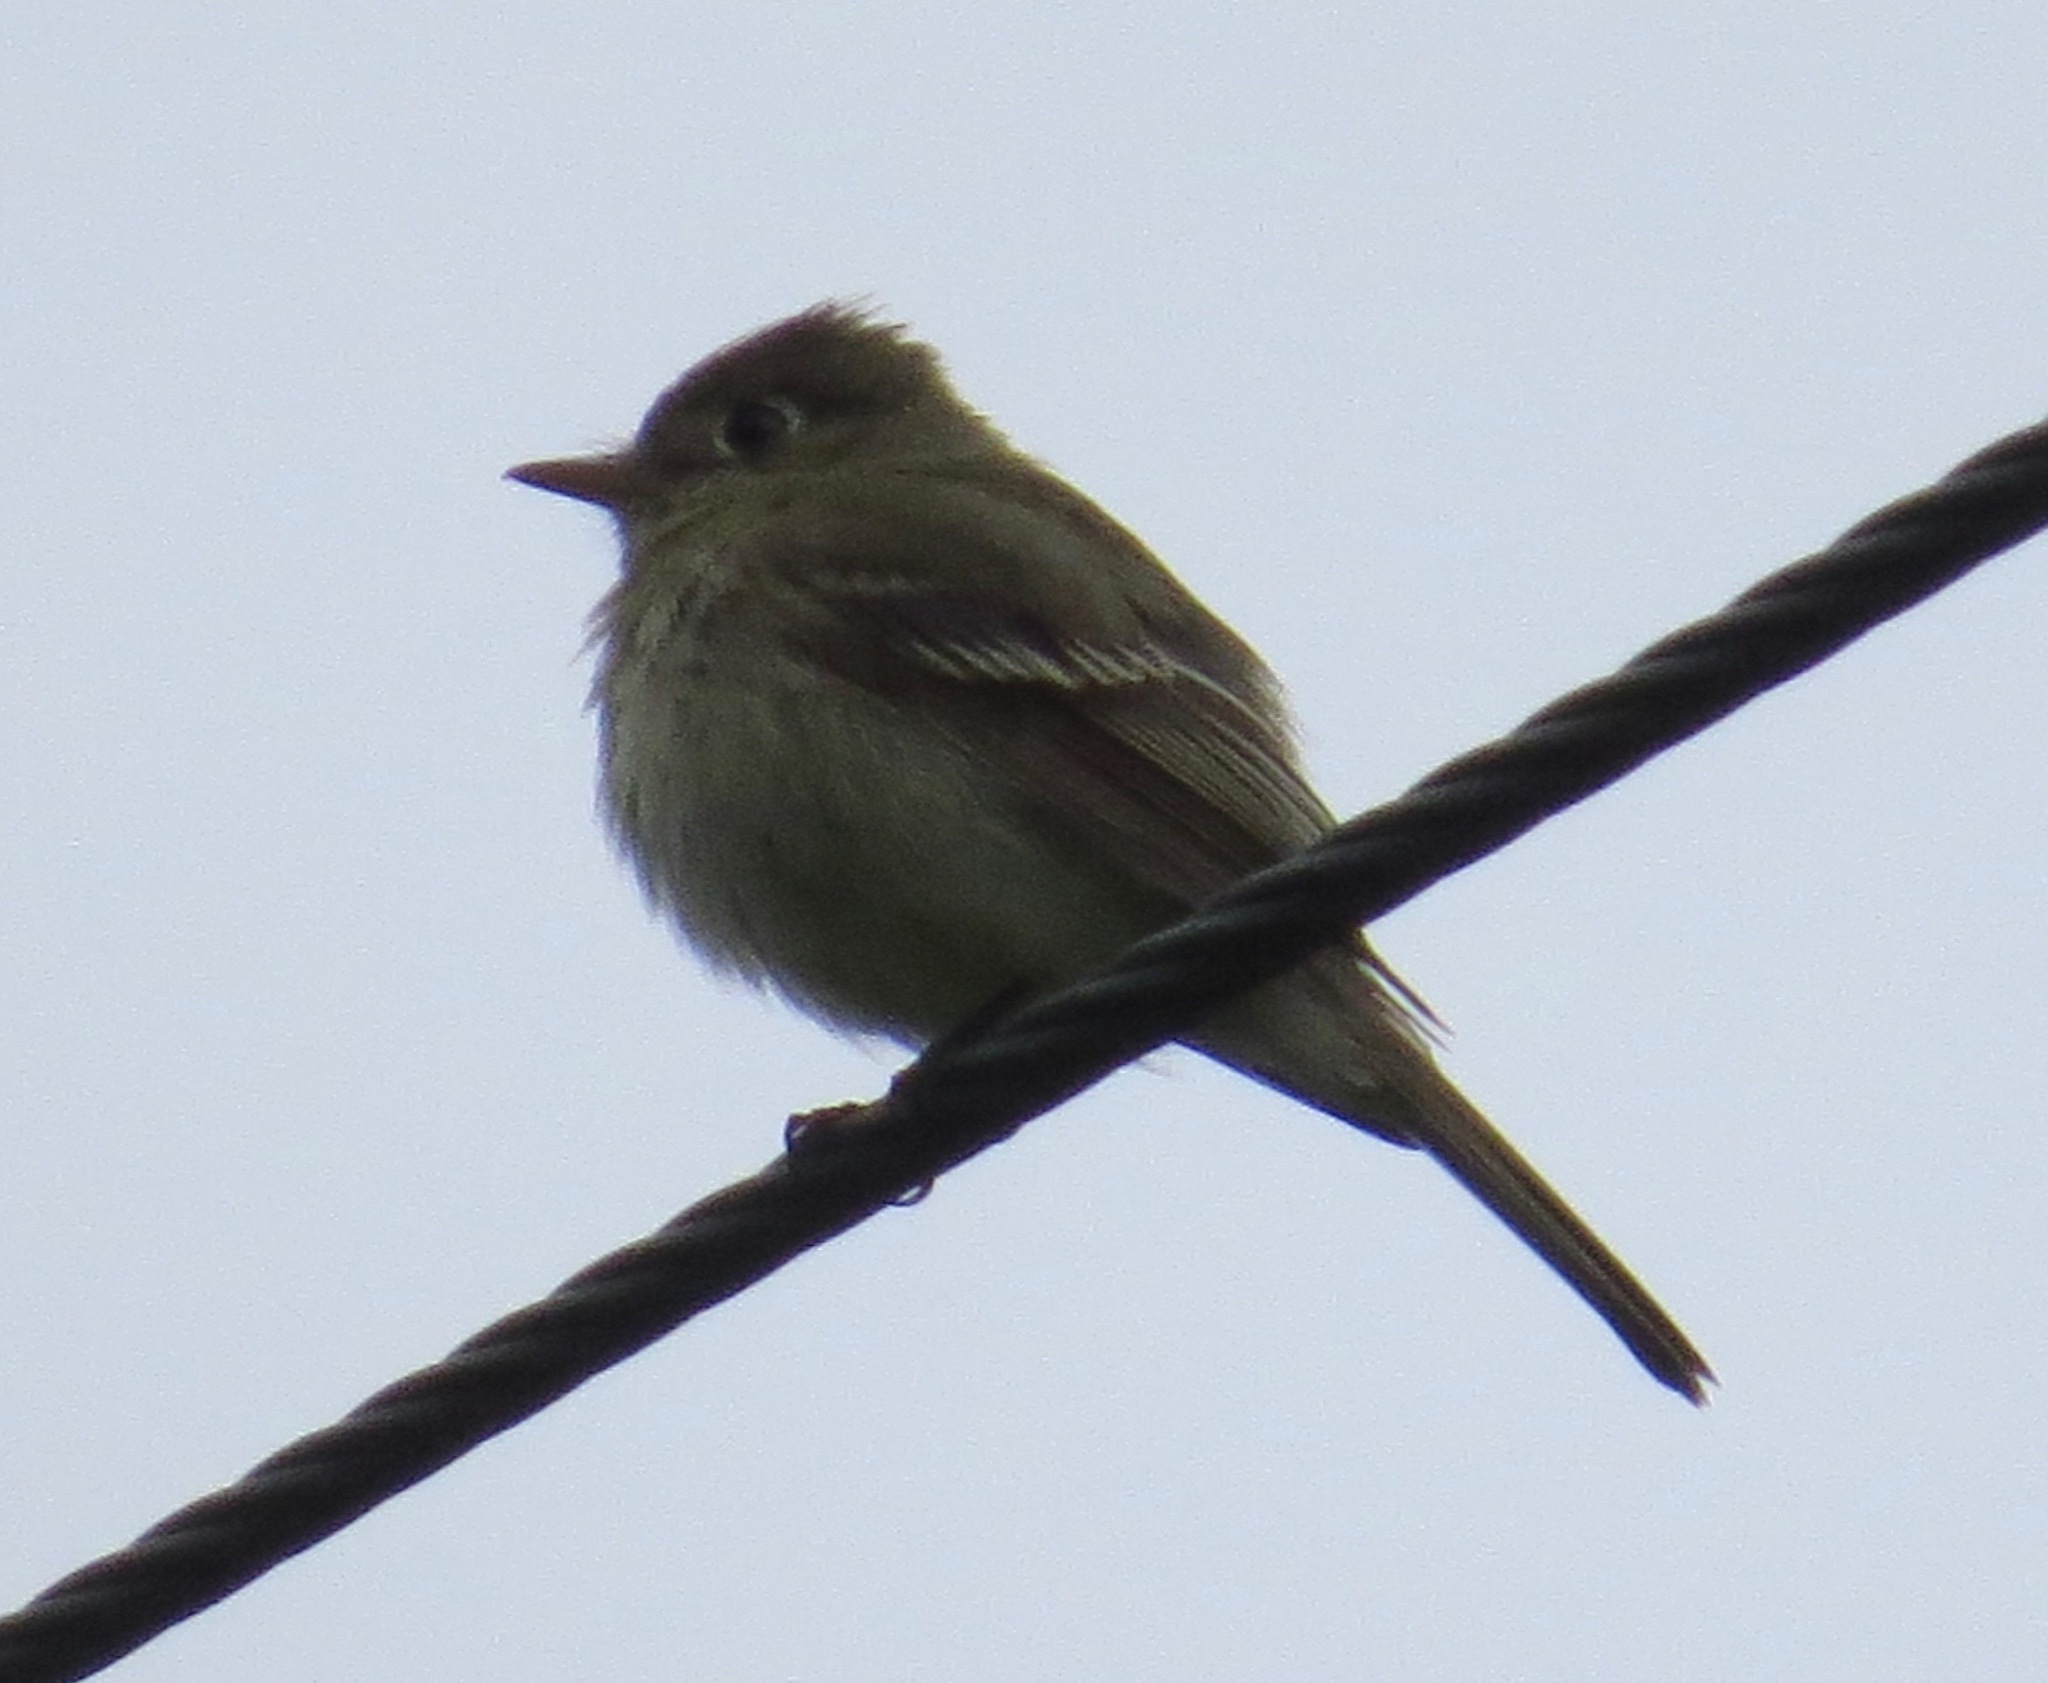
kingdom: Animalia
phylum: Chordata
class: Aves
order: Passeriformes
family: Tyrannidae
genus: Empidonax
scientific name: Empidonax difficilis
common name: Pacific-slope flycatcher
